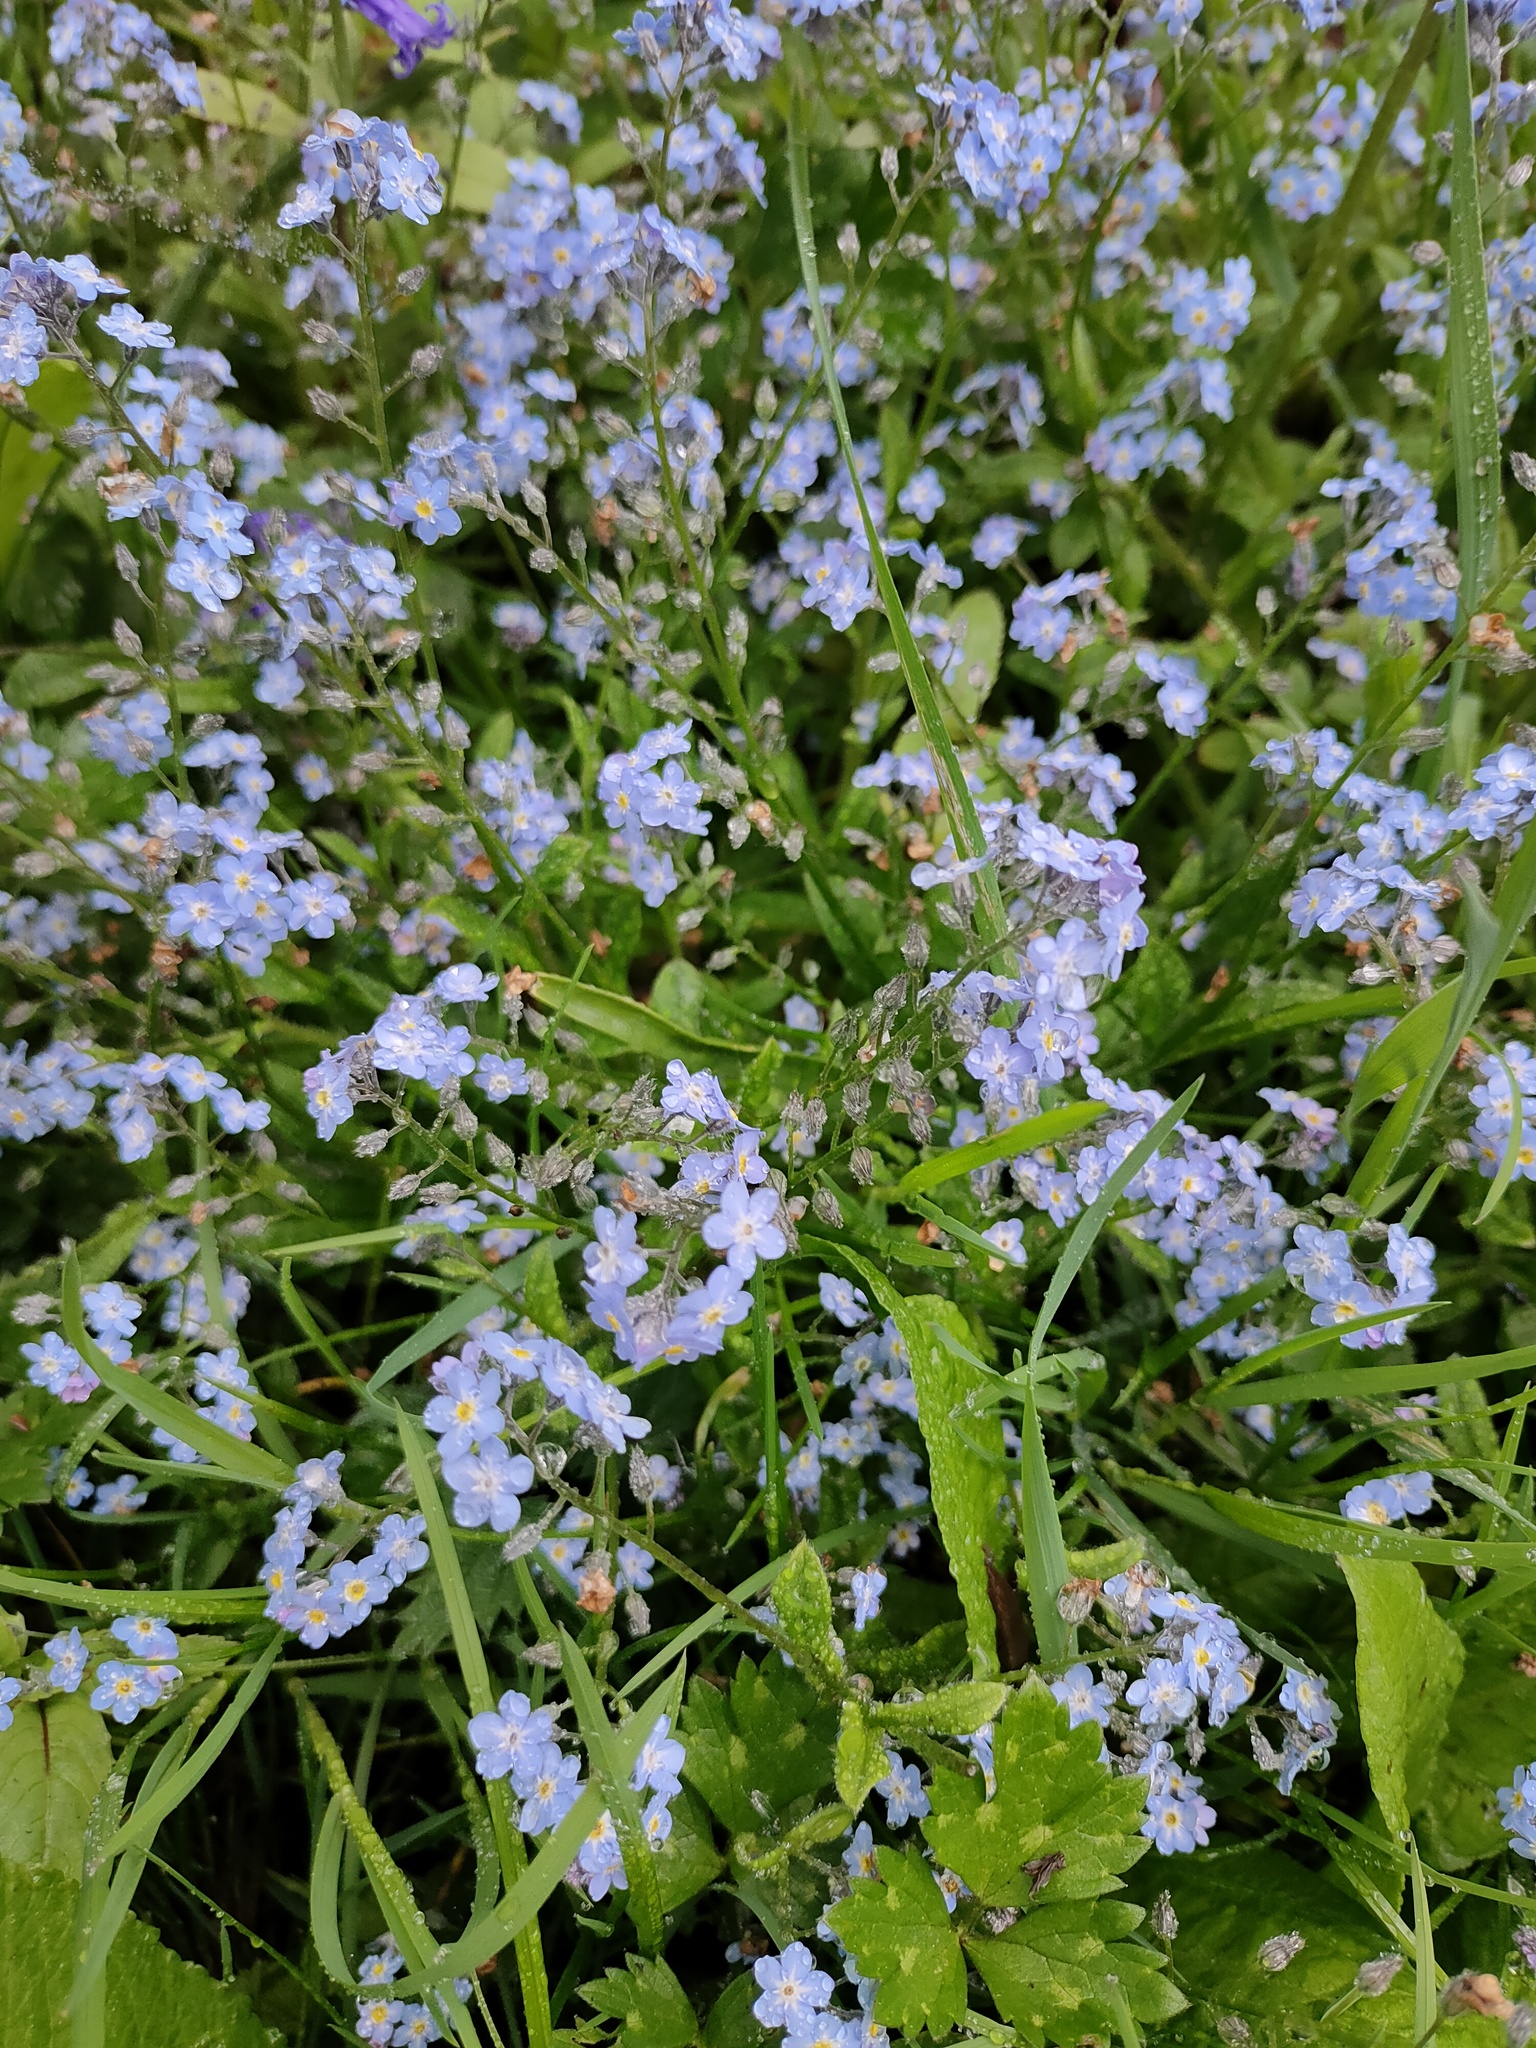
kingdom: Plantae
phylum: Tracheophyta
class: Magnoliopsida
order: Boraginales
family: Boraginaceae
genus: Myosotis
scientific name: Myosotis sylvatica
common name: Wood forget-me-not
